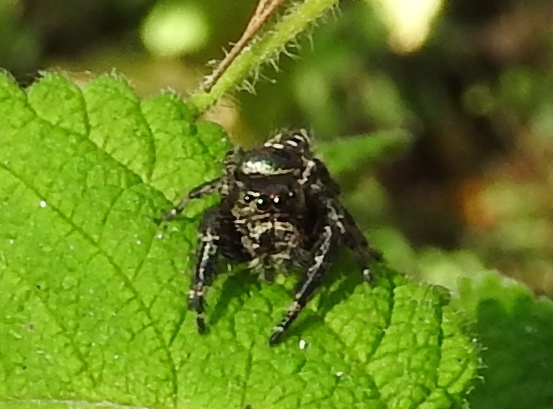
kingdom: Animalia
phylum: Arthropoda
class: Arachnida
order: Araneae
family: Salticidae
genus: Paraphidippus
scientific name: Paraphidippus
